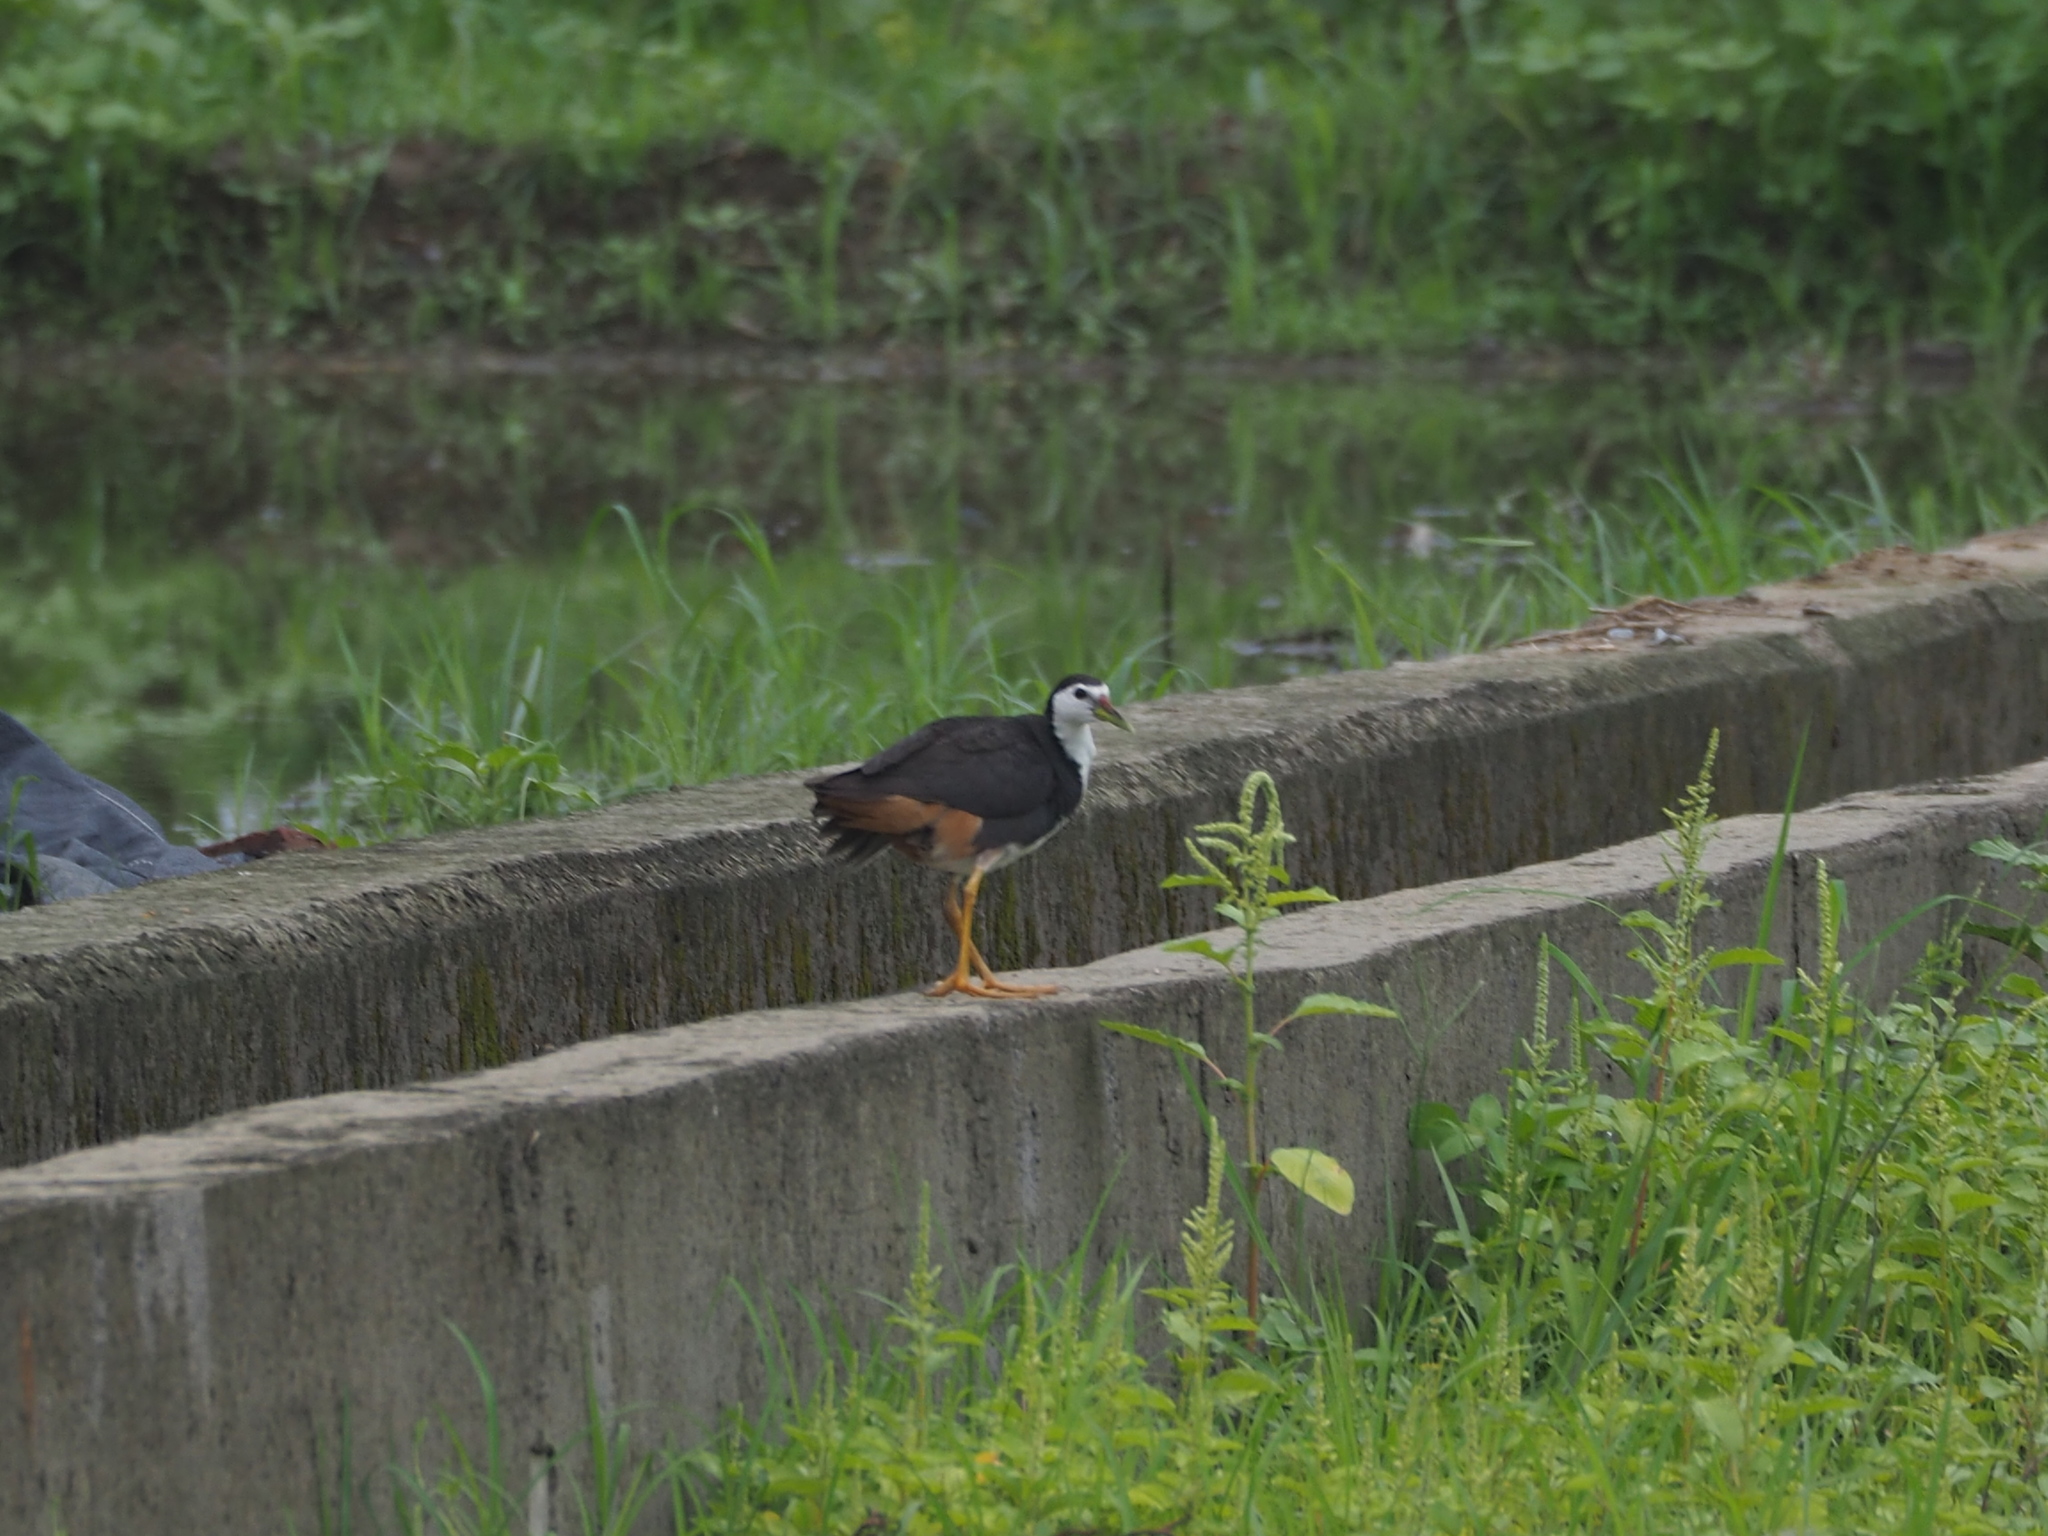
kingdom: Animalia
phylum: Chordata
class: Aves
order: Gruiformes
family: Rallidae
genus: Amaurornis
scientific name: Amaurornis phoenicurus
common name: White-breasted waterhen
